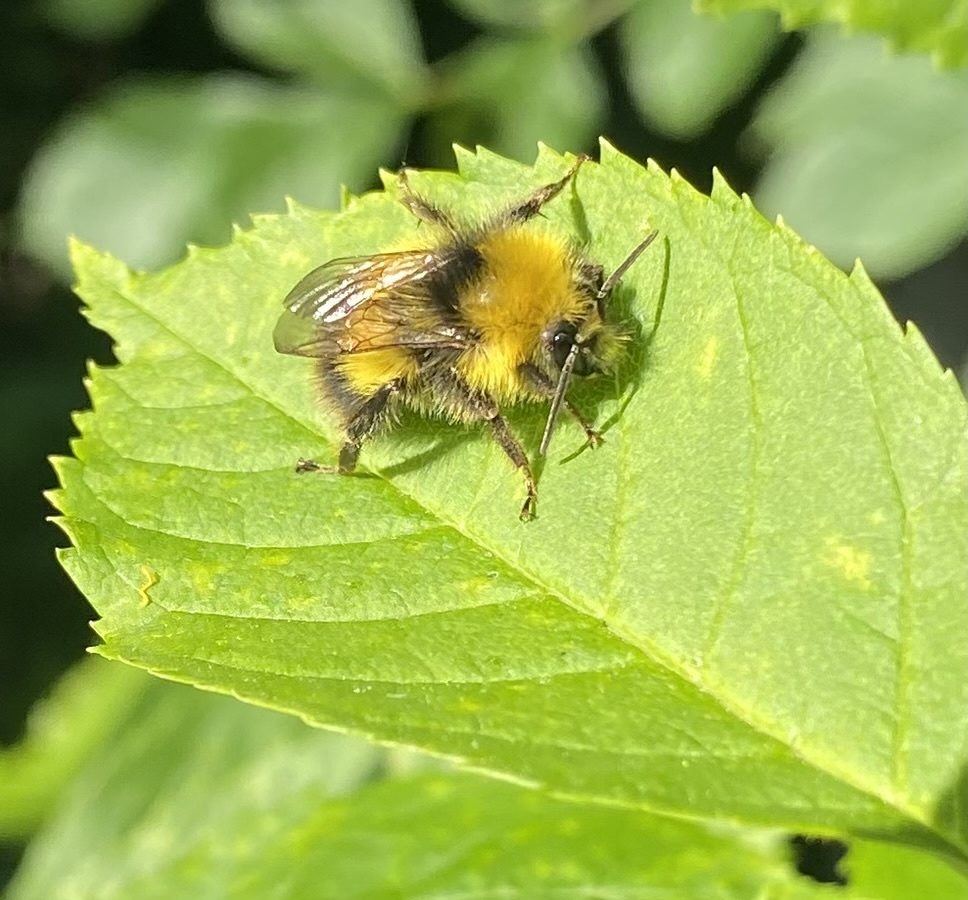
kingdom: Animalia
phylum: Arthropoda
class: Insecta
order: Hymenoptera
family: Apidae
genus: Bombus
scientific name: Bombus pratorum
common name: Early humble-bee
